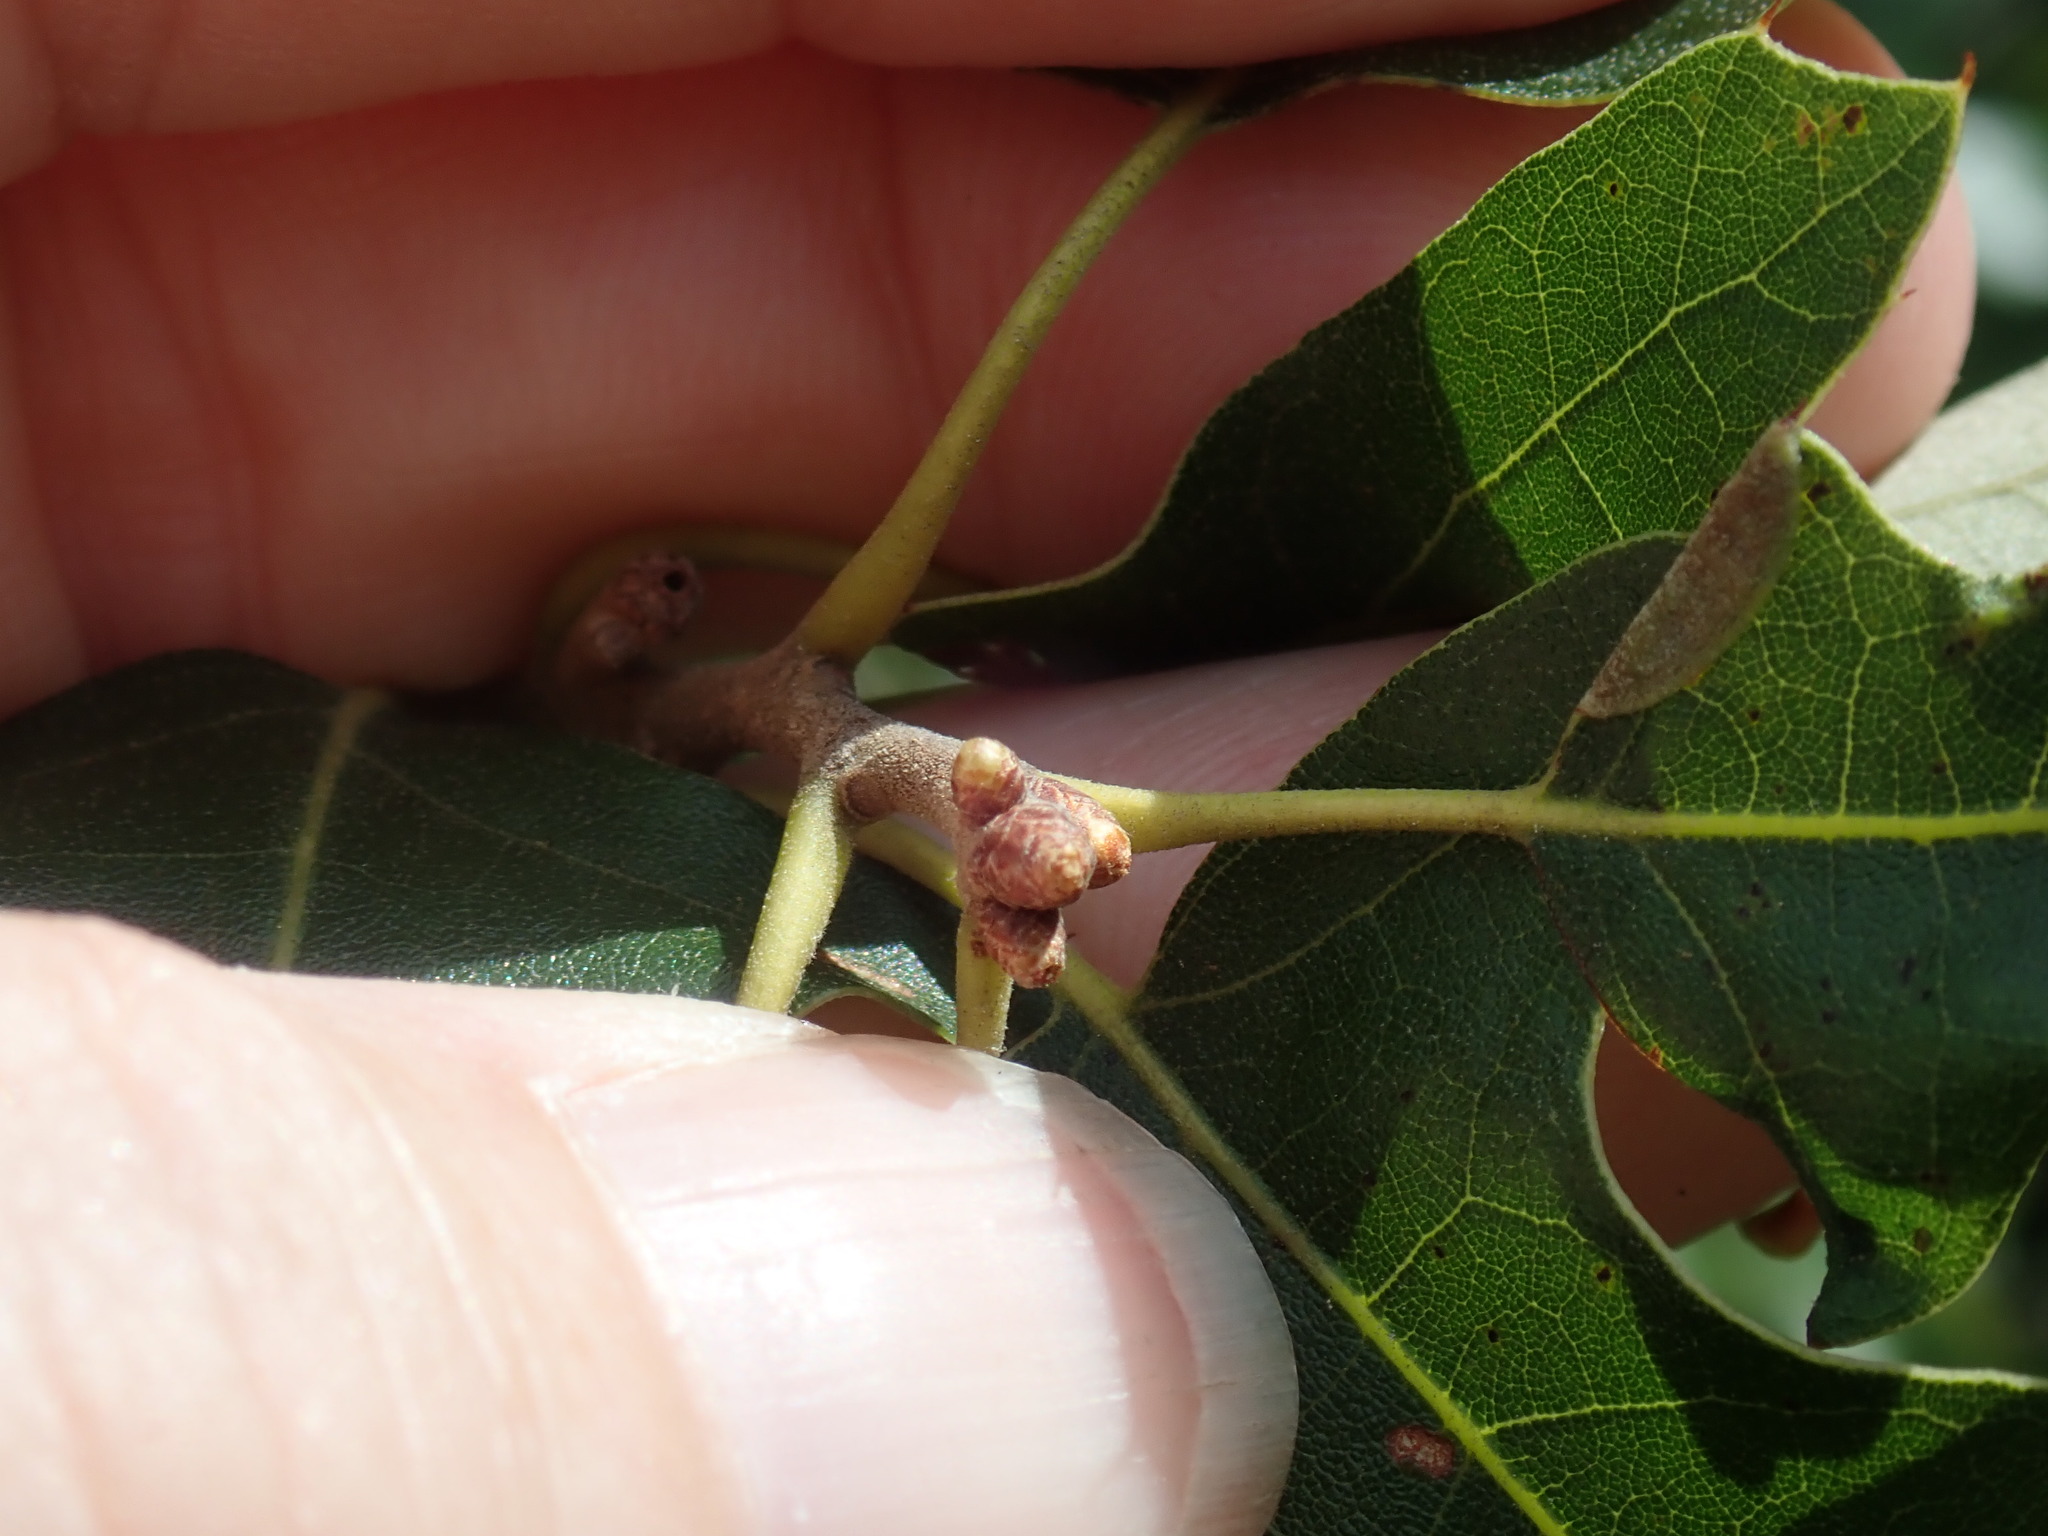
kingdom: Plantae
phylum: Tracheophyta
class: Magnoliopsida
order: Fagales
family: Fagaceae
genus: Quercus
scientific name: Quercus ilicifolia
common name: Bear oak
